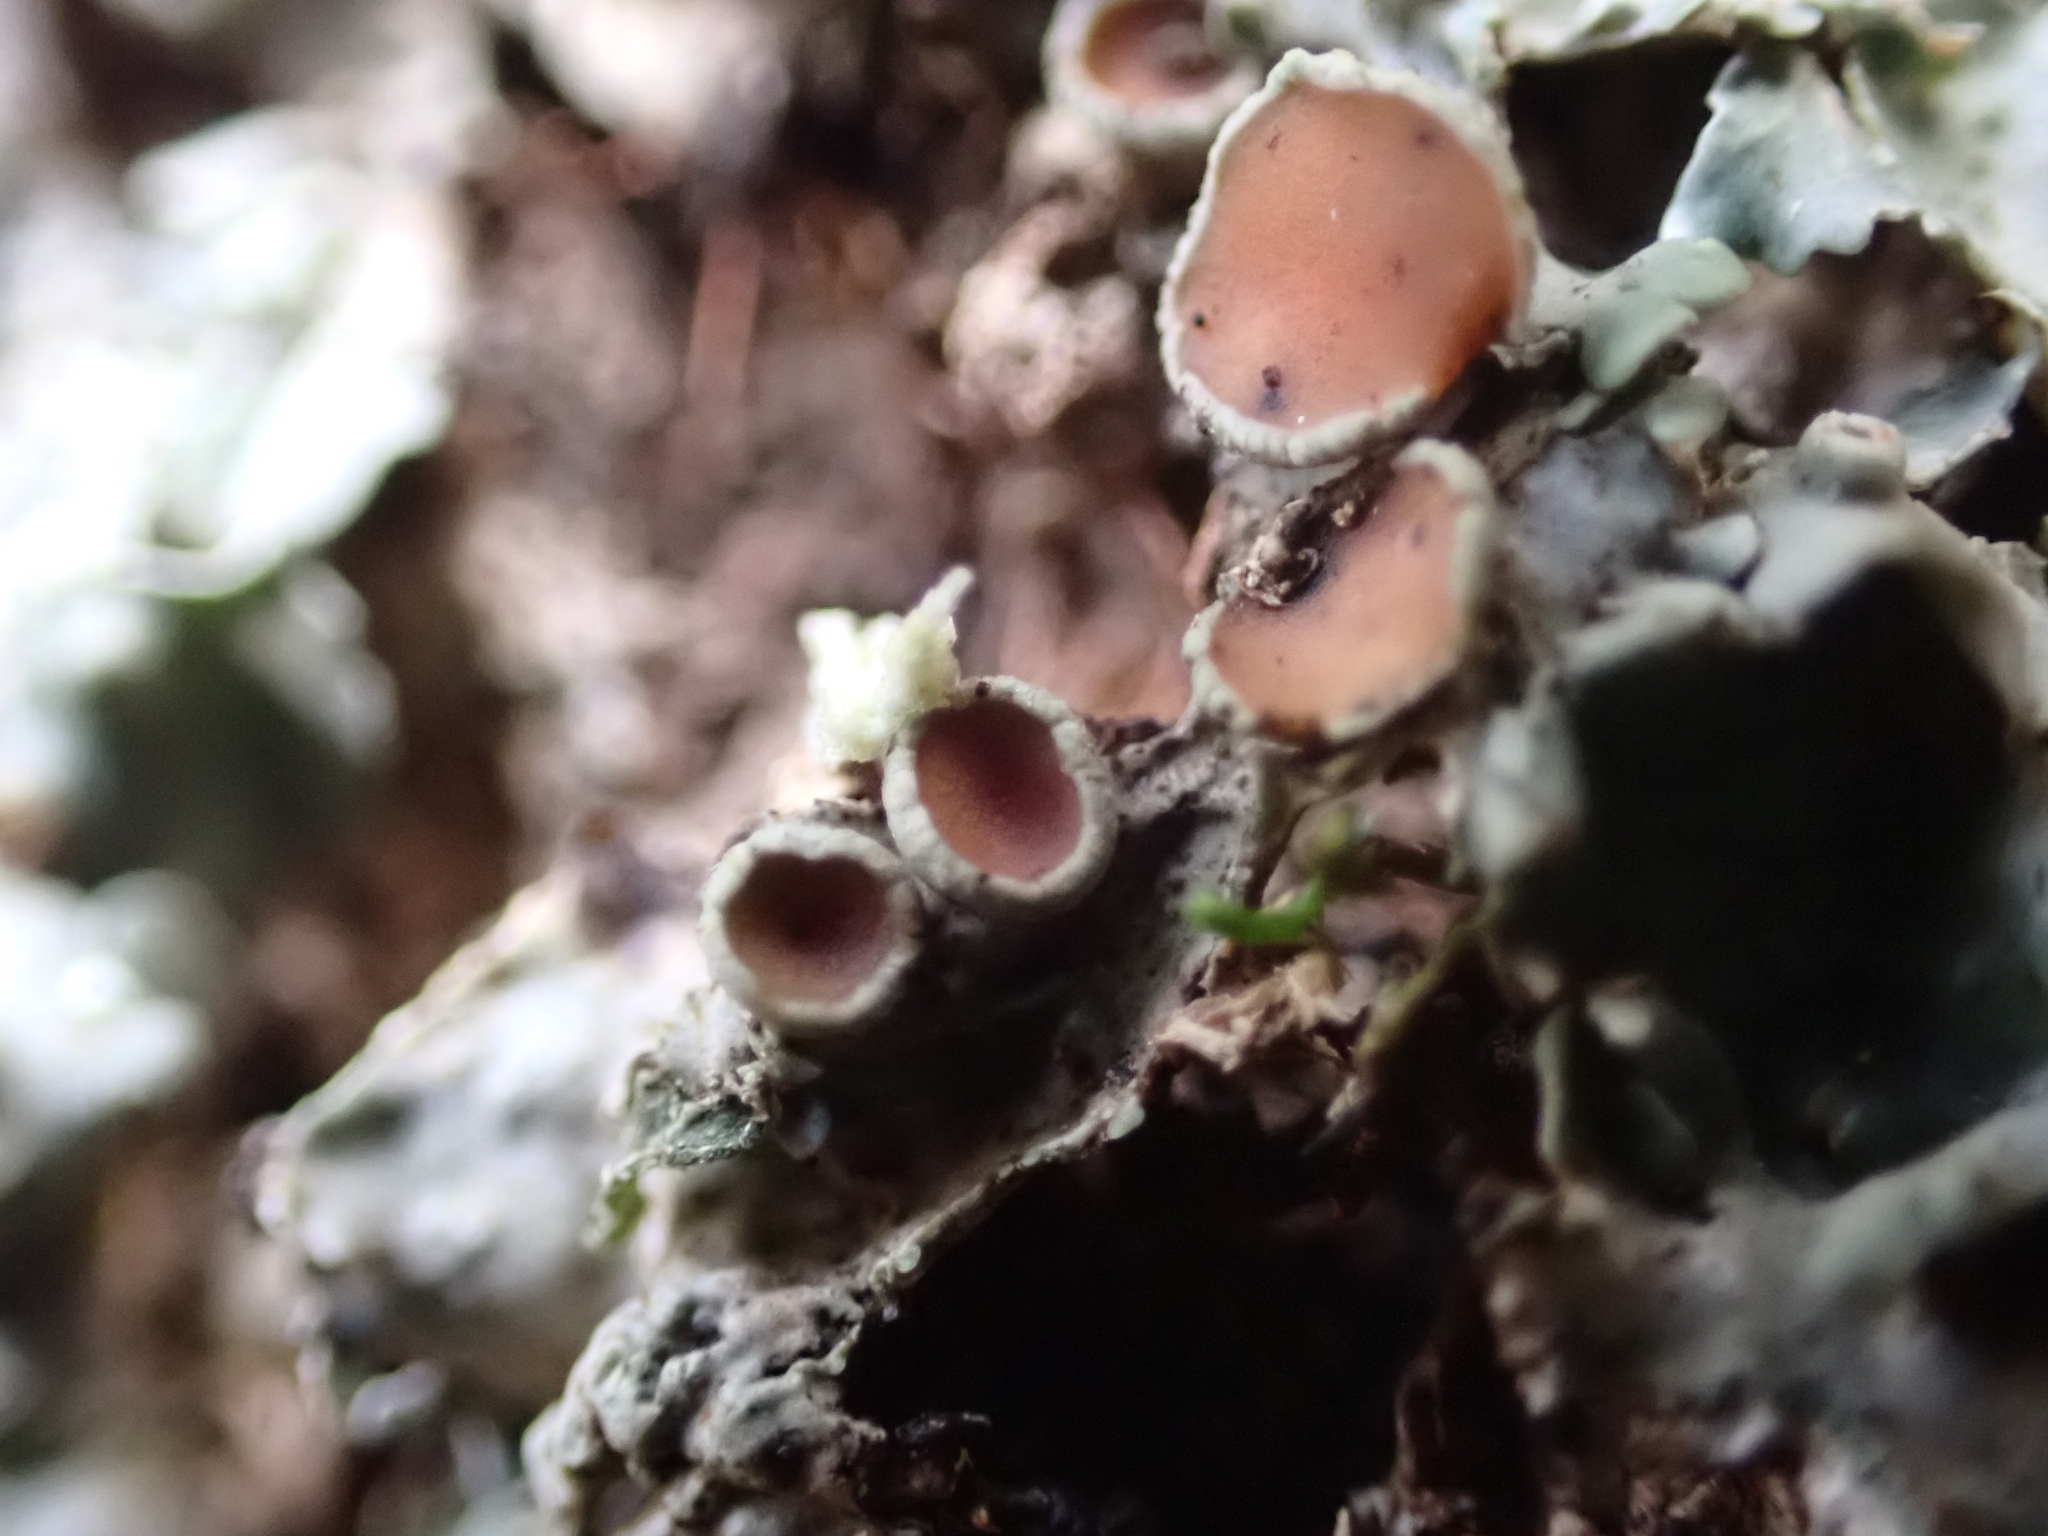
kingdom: Fungi
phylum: Ascomycota
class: Lecanoromycetes
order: Peltigerales
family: Lobariaceae
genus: Ricasolia
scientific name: Ricasolia virens
